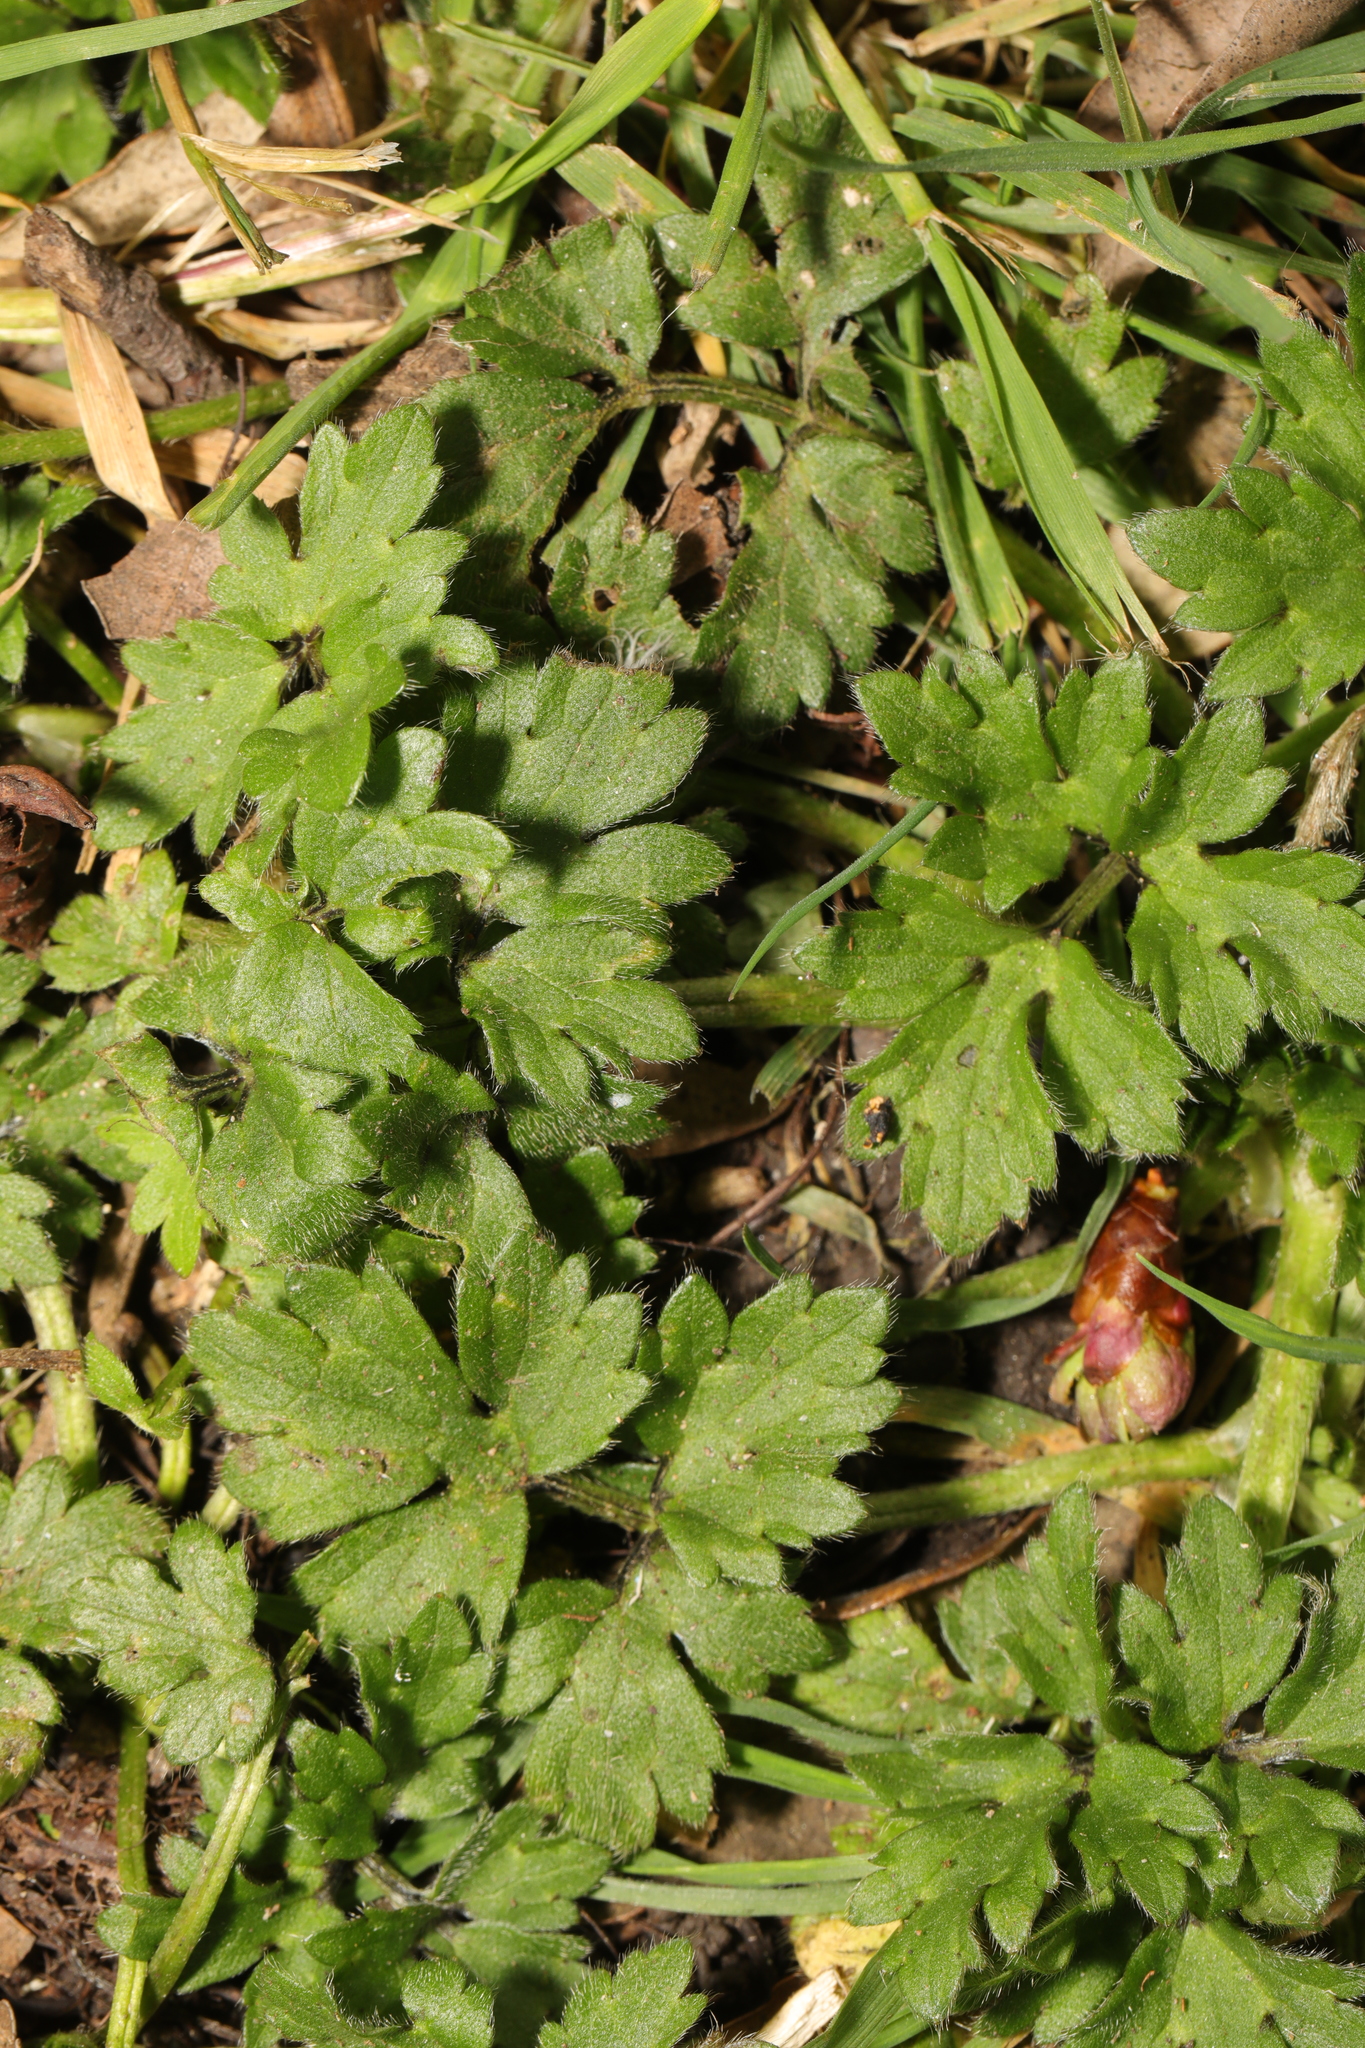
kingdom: Plantae
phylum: Tracheophyta
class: Magnoliopsida
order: Ranunculales
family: Ranunculaceae
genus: Ranunculus
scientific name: Ranunculus repens
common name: Creeping buttercup
